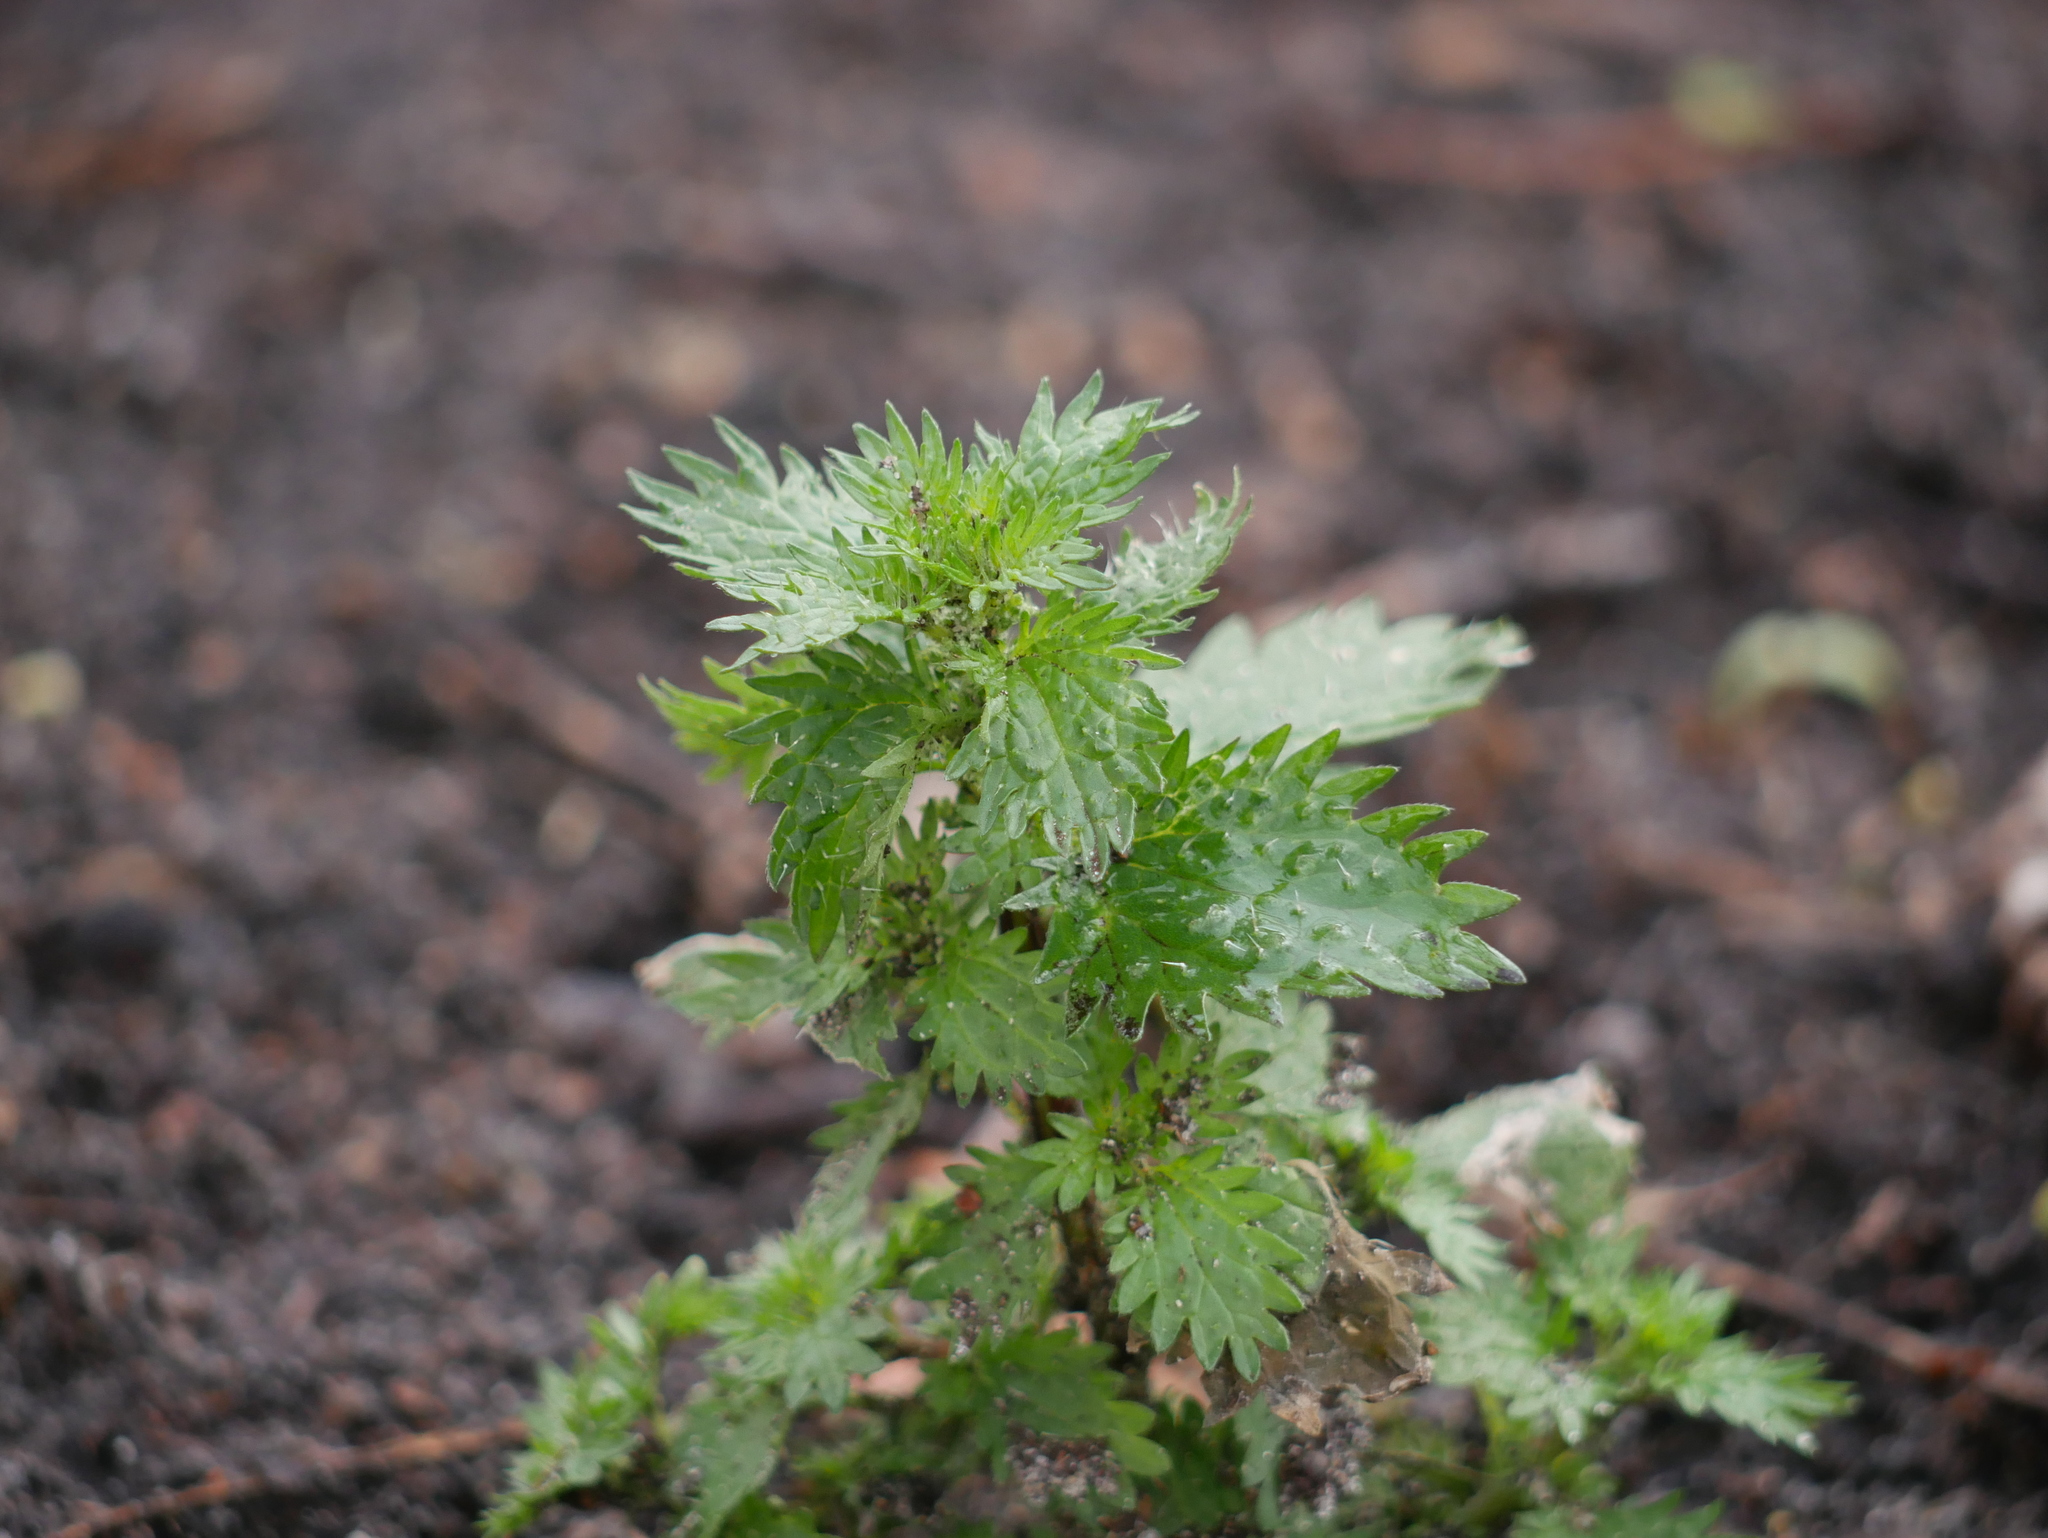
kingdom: Plantae
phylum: Tracheophyta
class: Magnoliopsida
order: Rosales
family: Urticaceae
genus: Urtica
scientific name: Urtica urens
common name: Dwarf nettle
